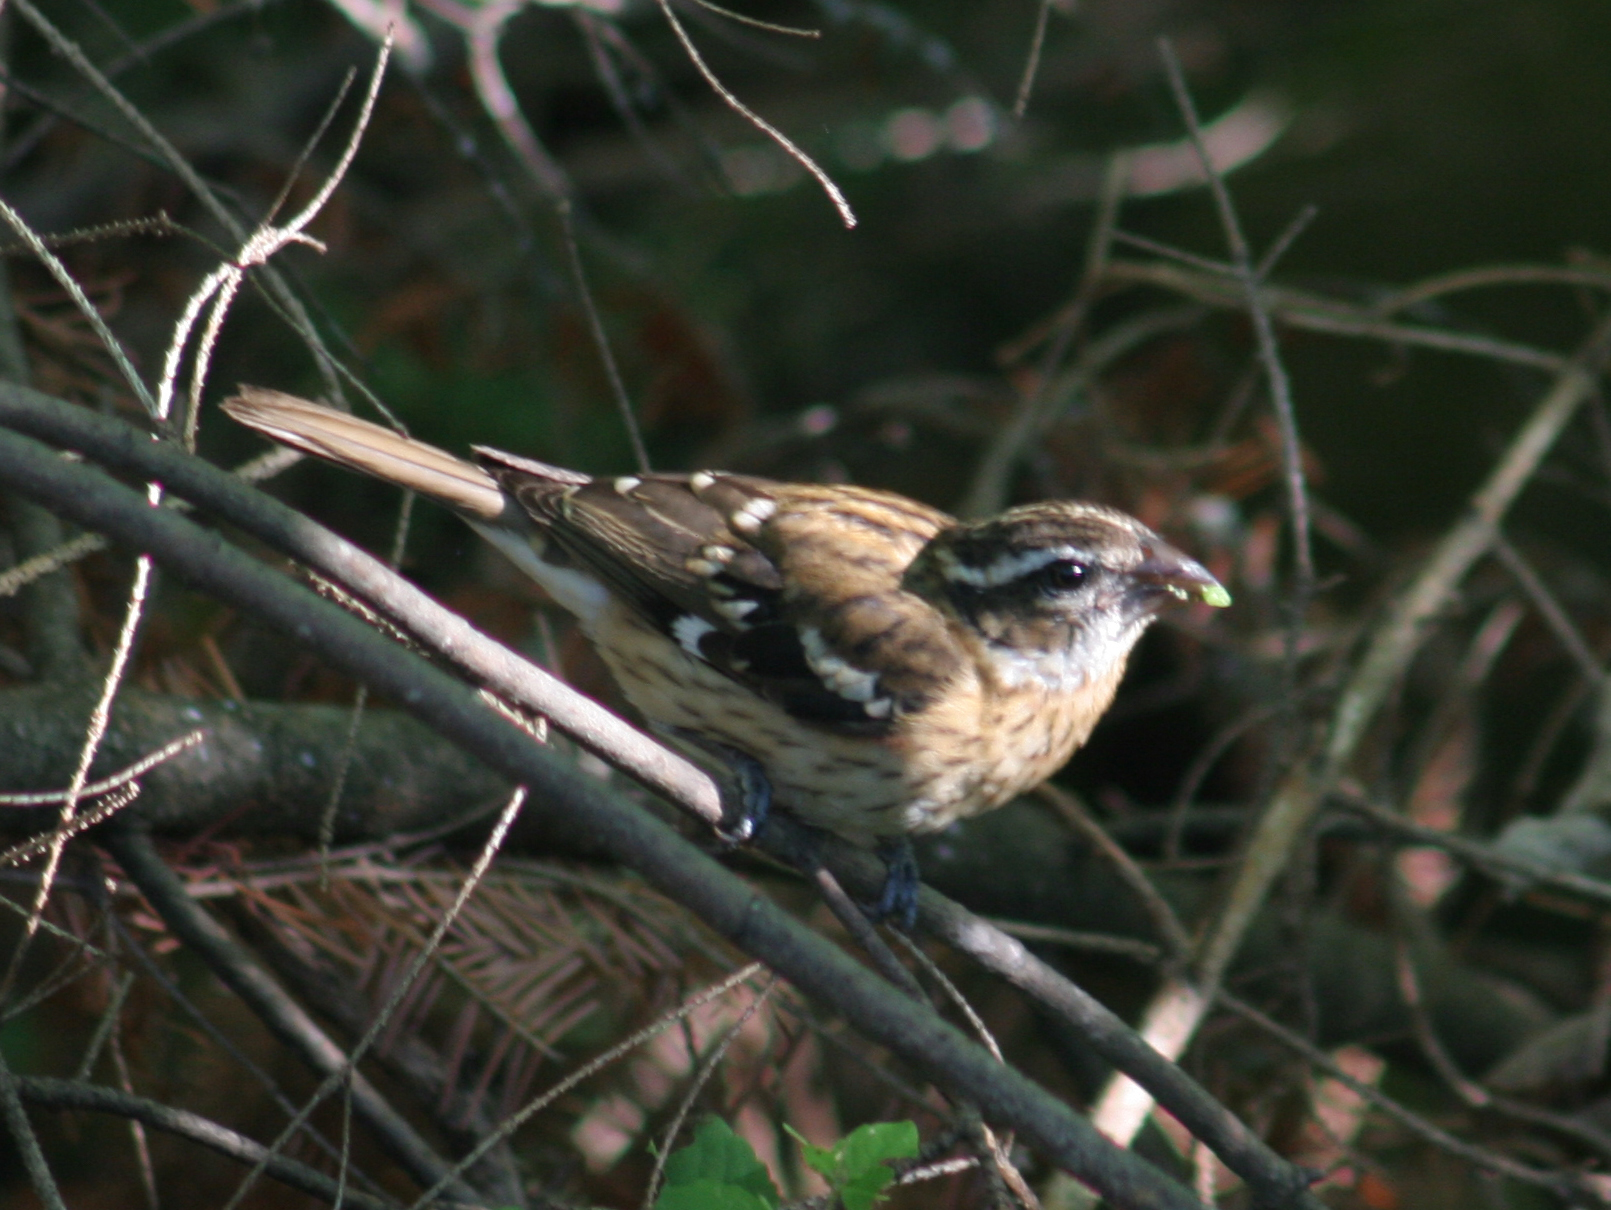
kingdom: Animalia
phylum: Chordata
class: Aves
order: Passeriformes
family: Cardinalidae
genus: Pheucticus
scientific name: Pheucticus ludovicianus
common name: Rose-breasted grosbeak
